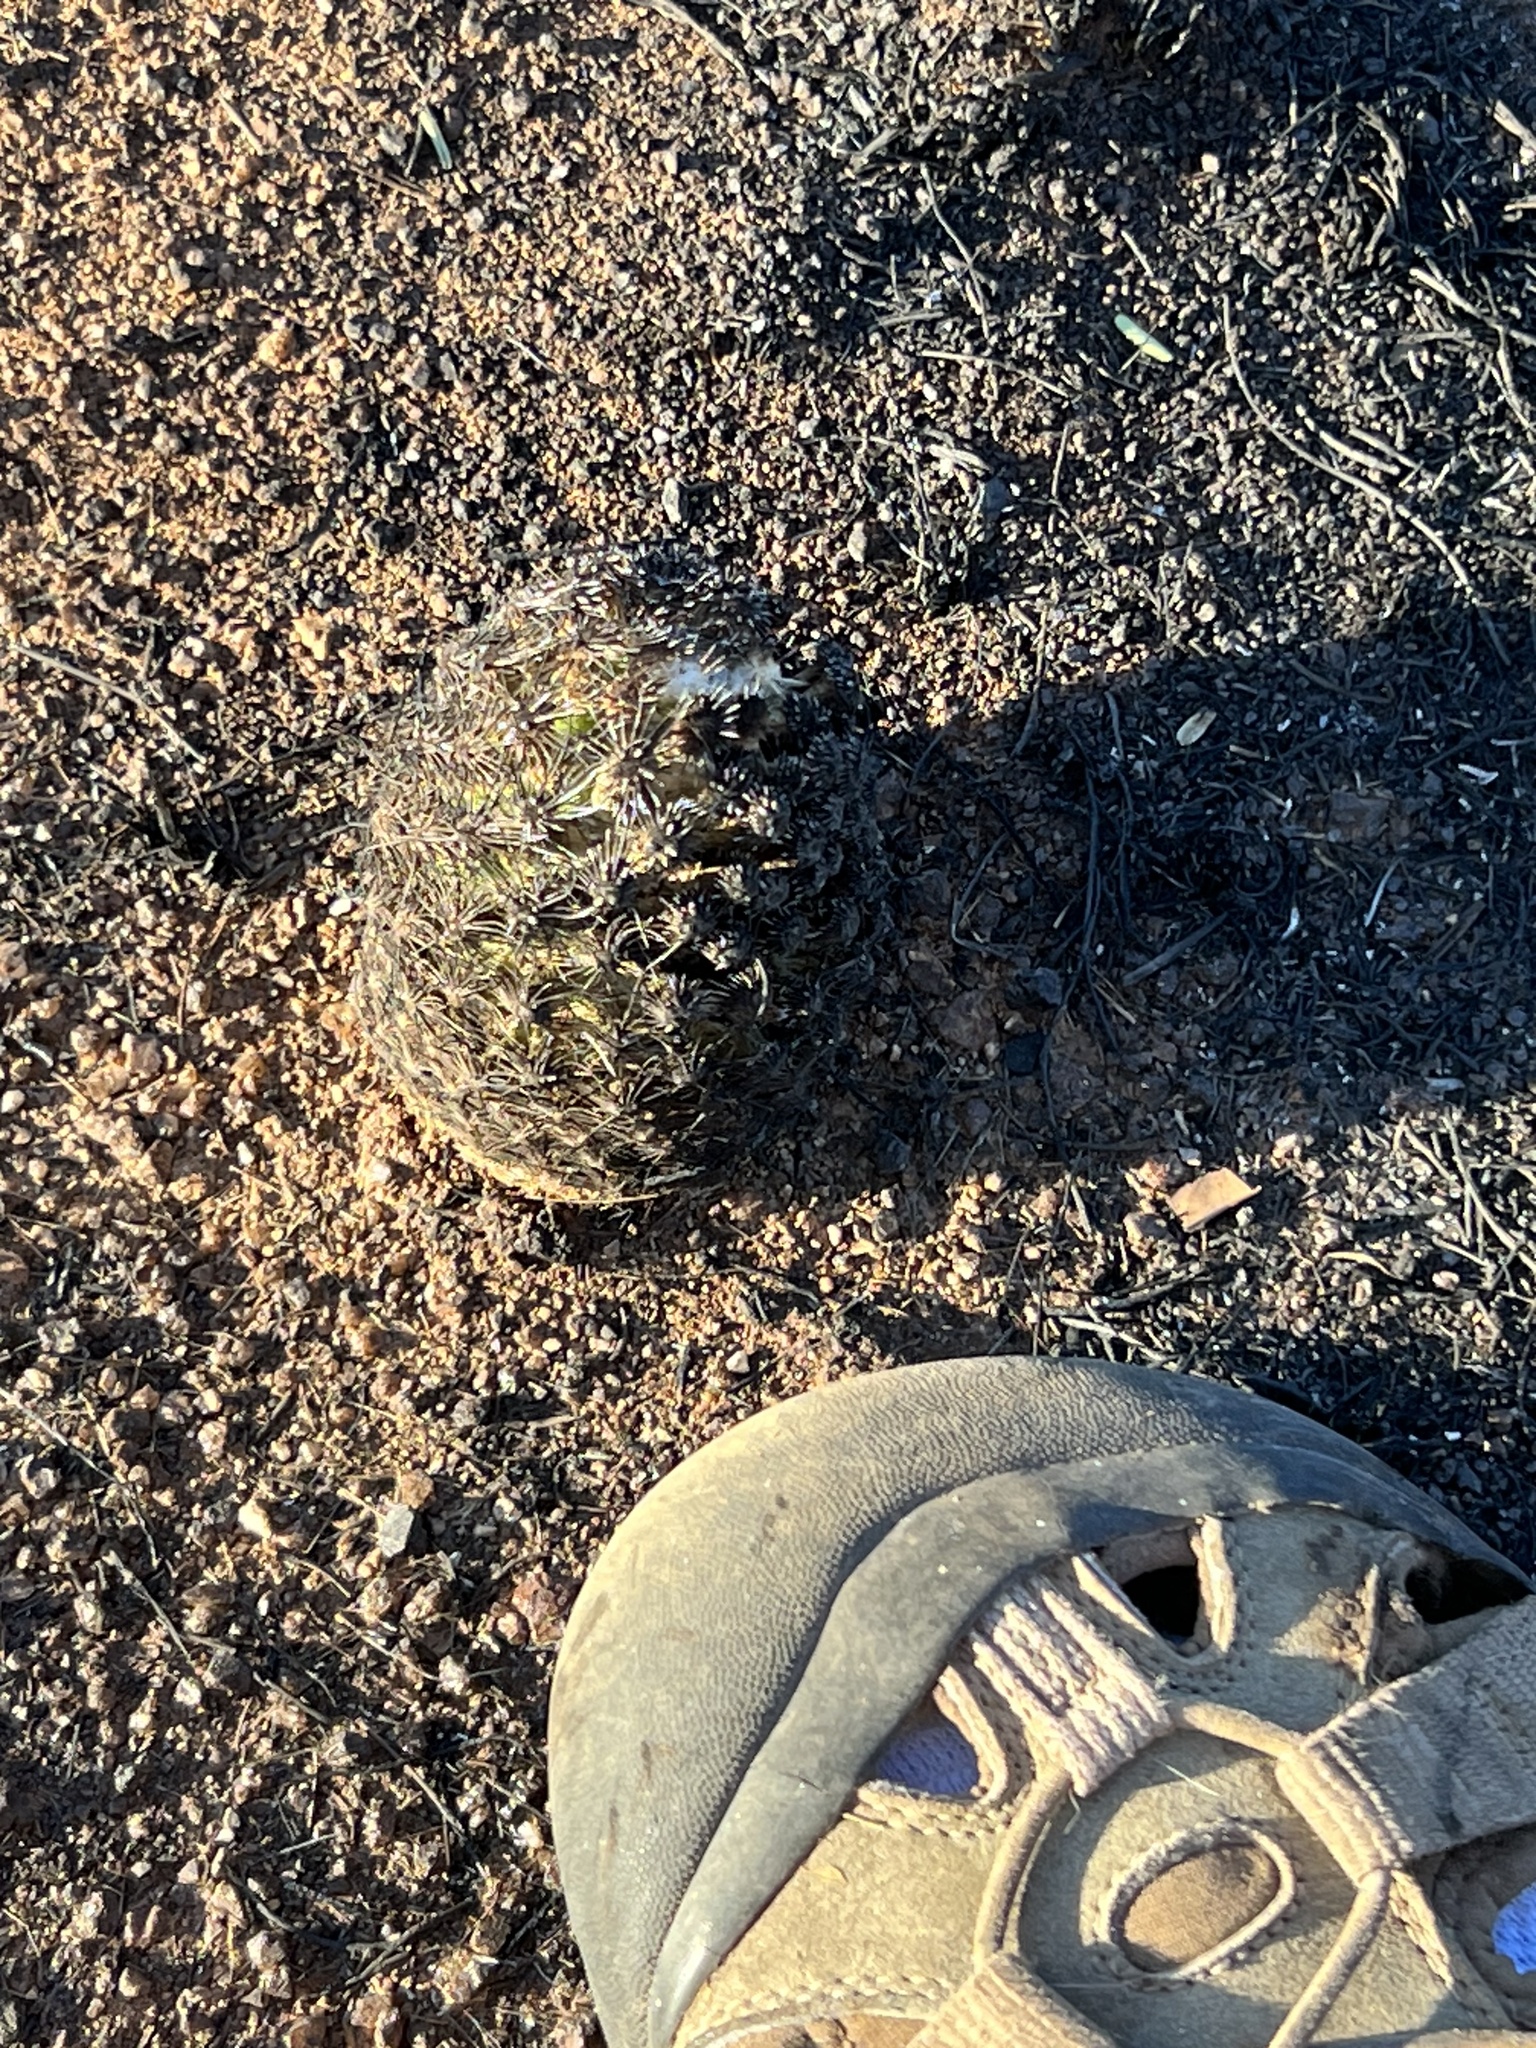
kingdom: Plantae
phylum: Tracheophyta
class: Magnoliopsida
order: Caryophyllales
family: Cactaceae
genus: Sclerocactus
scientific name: Sclerocactus intertextus
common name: White fish-hook cactus
